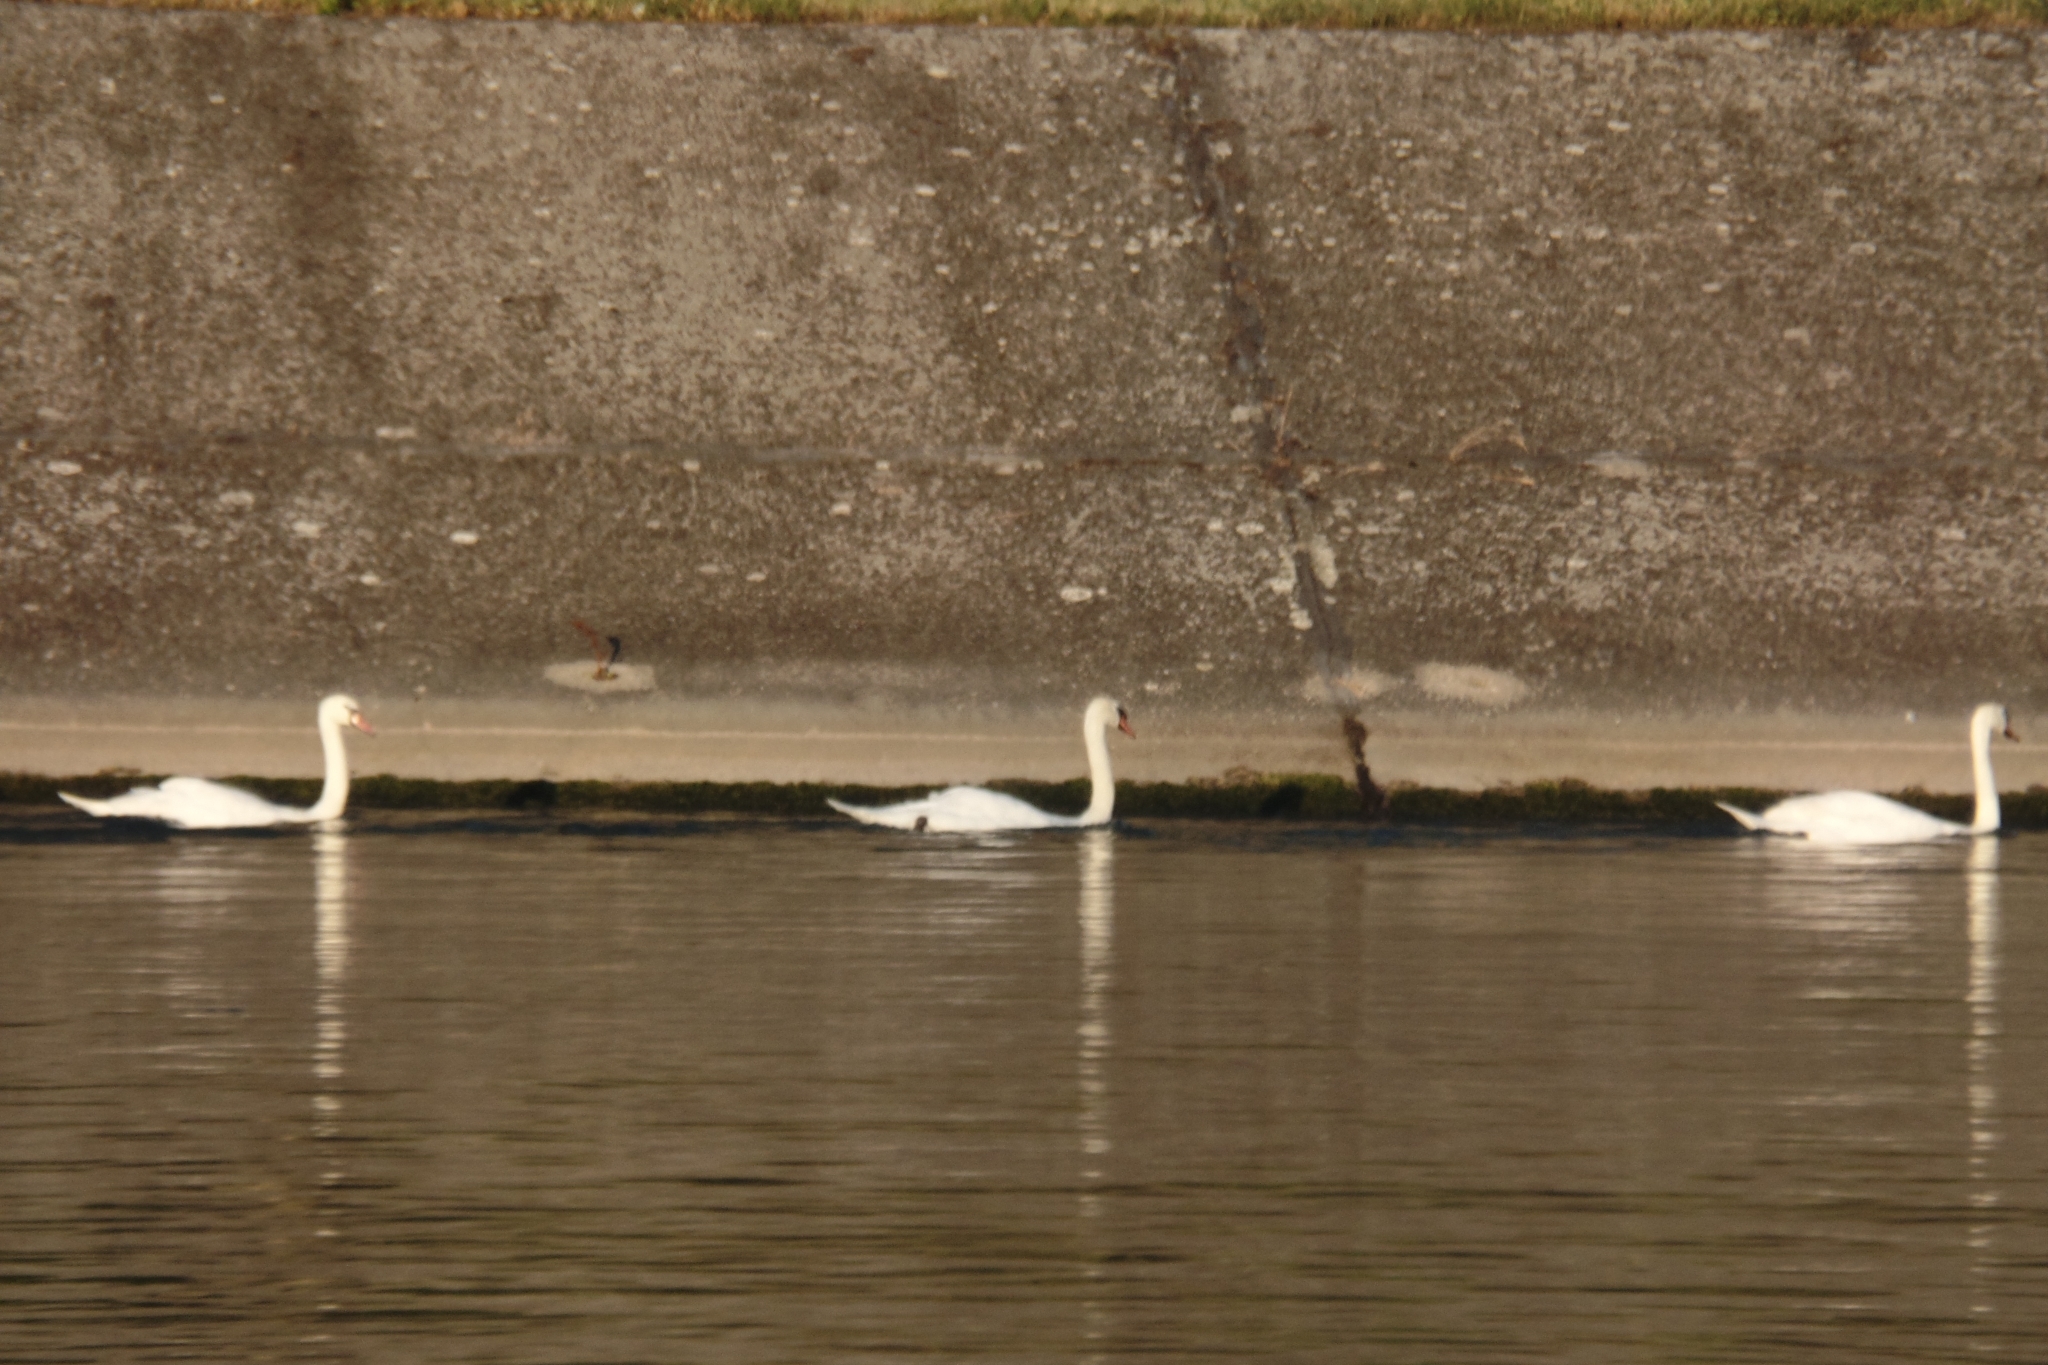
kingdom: Animalia
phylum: Chordata
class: Aves
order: Anseriformes
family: Anatidae
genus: Cygnus
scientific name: Cygnus olor
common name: Mute swan
